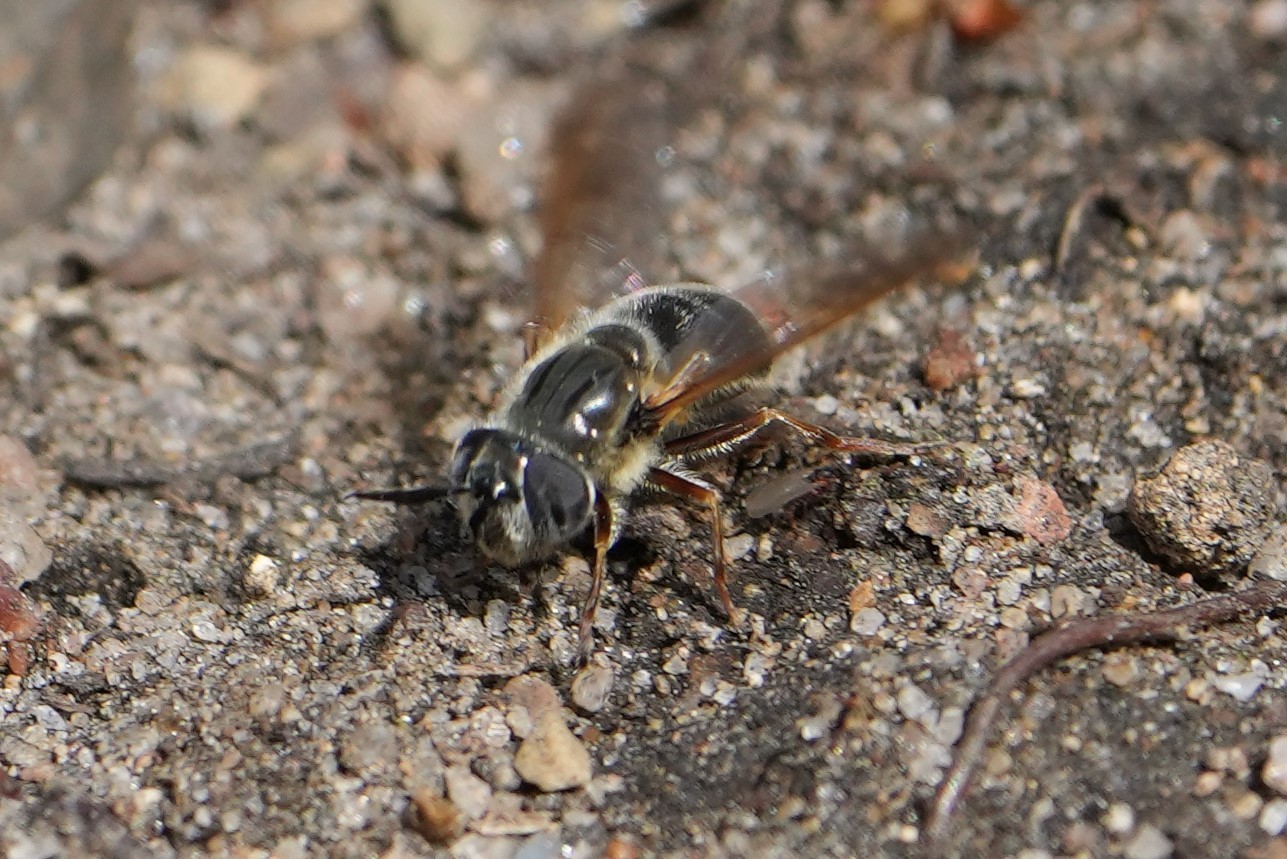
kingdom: Animalia
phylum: Arthropoda
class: Insecta
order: Diptera
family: Syrphidae
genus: Callicera
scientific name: Callicera erratica
